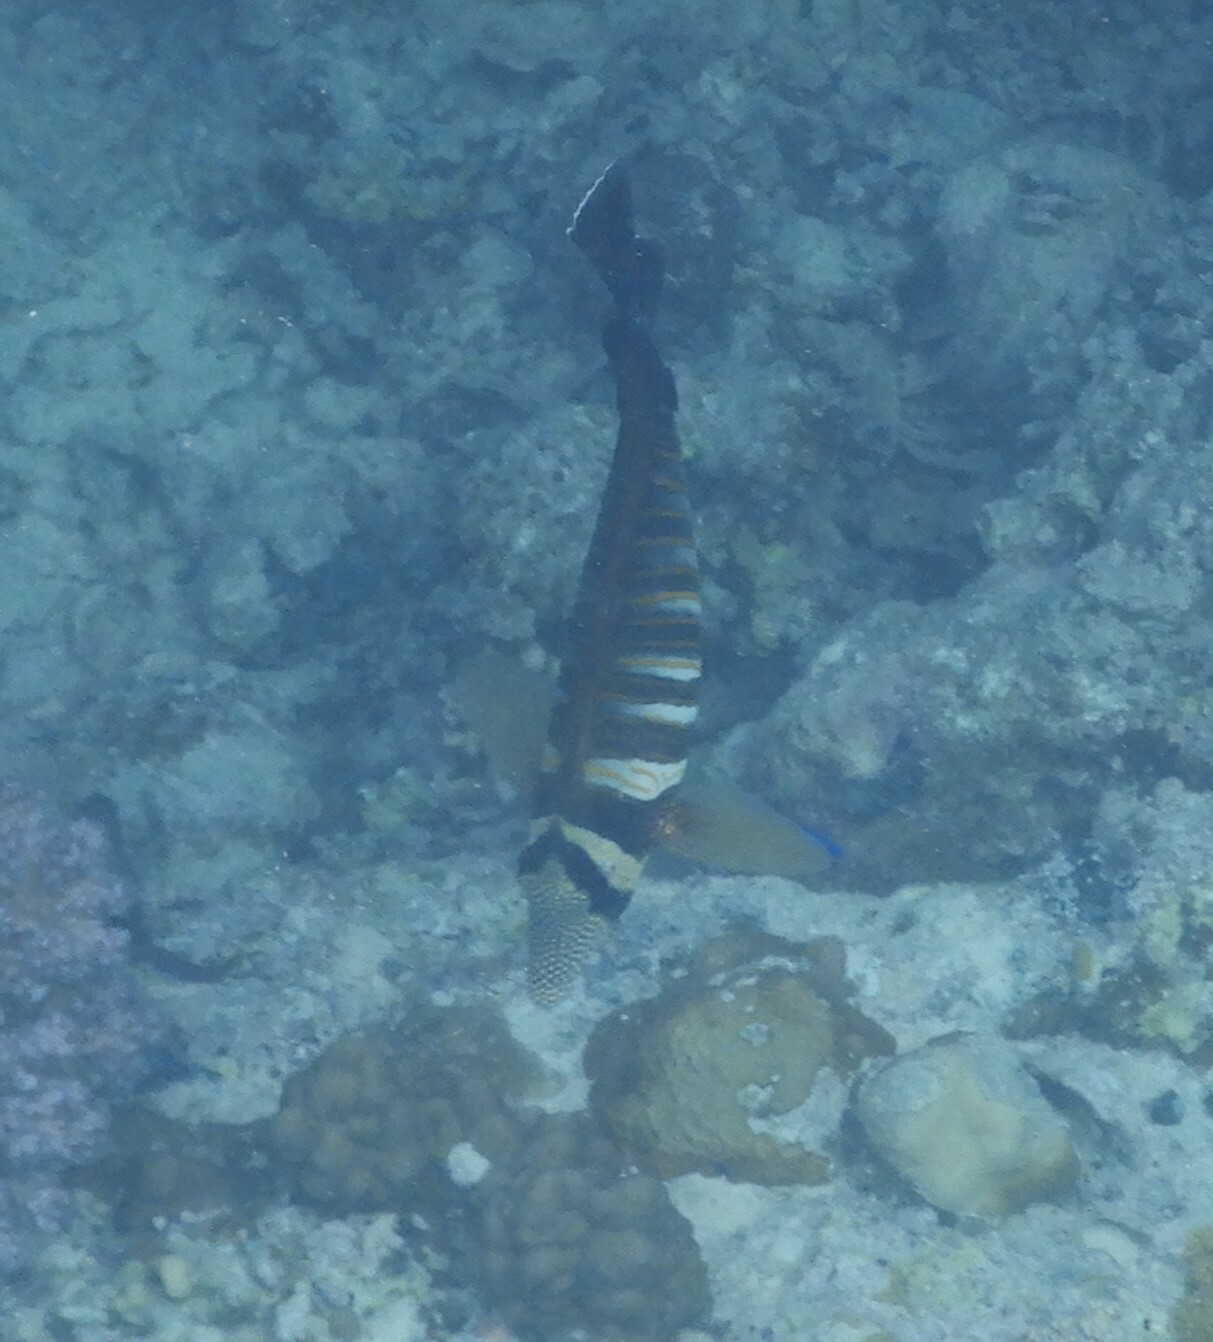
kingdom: Animalia
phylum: Chordata
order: Perciformes
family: Acanthuridae
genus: Zebrasoma
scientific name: Zebrasoma desjardinii
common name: Desjardin's sailfin tang
